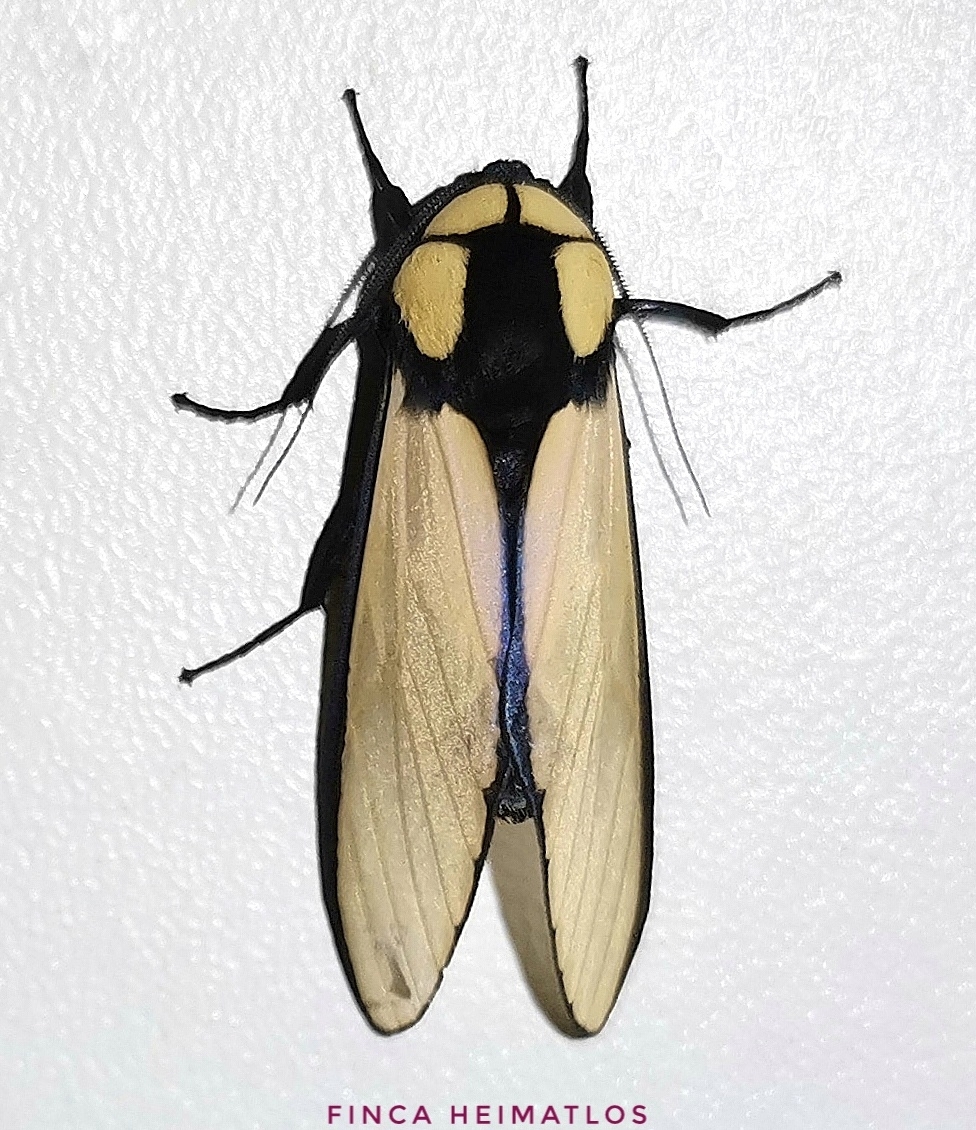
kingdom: Animalia
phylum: Arthropoda
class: Insecta
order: Lepidoptera
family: Erebidae
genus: Machaeraptenus
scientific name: Machaeraptenus ventralis
